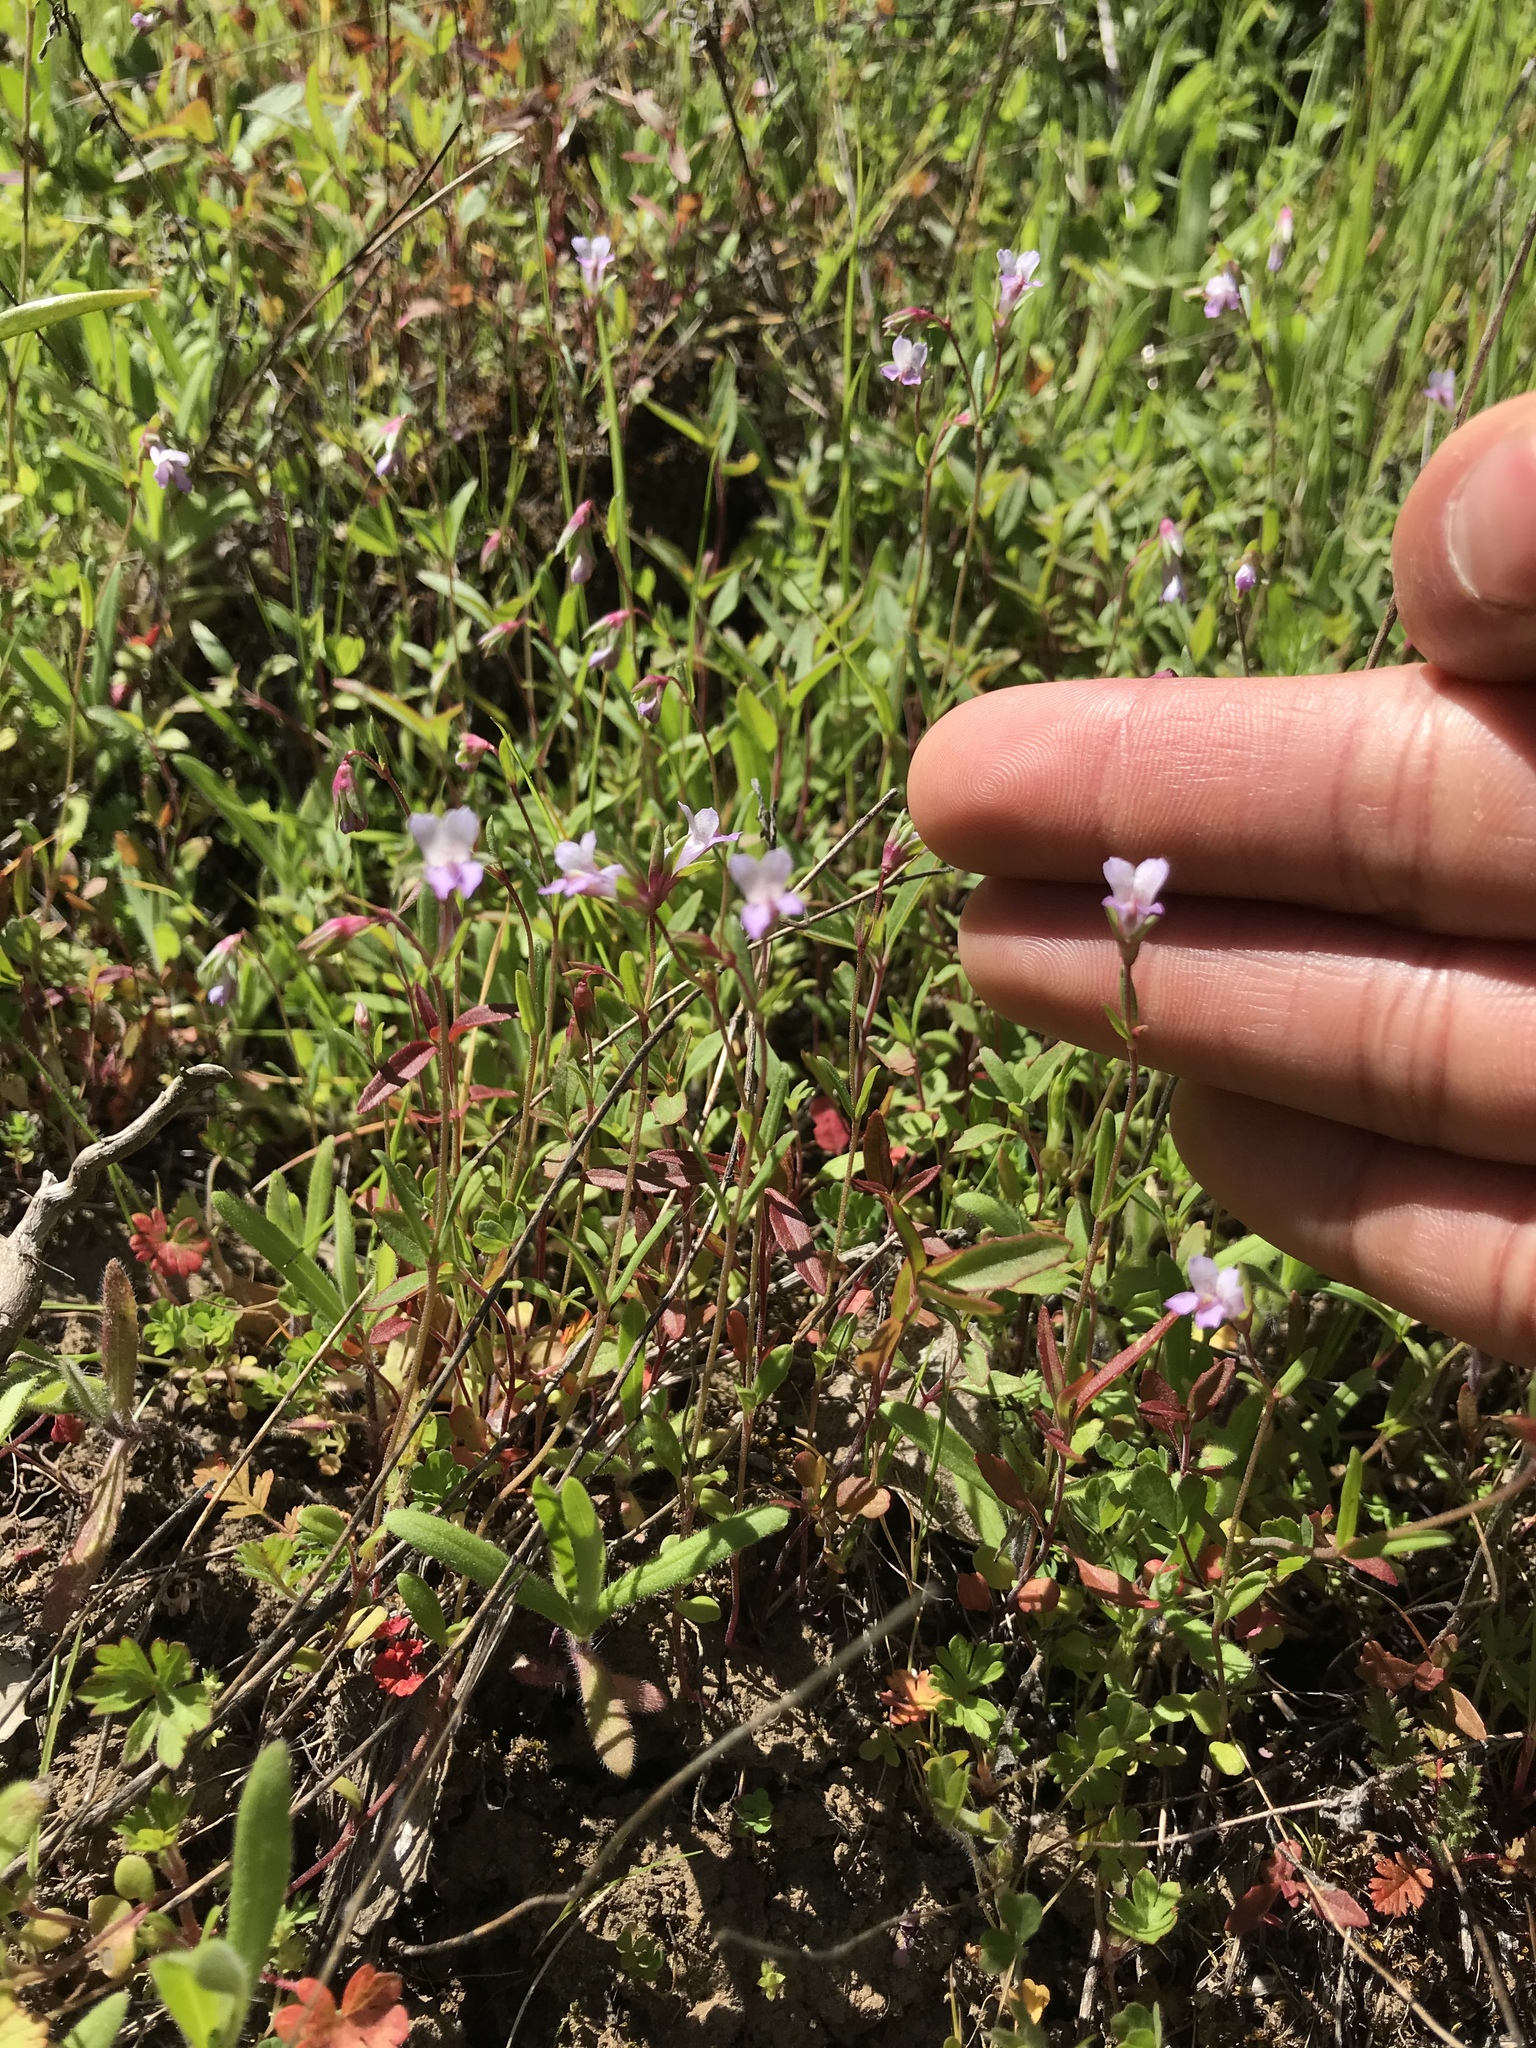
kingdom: Plantae
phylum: Tracheophyta
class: Magnoliopsida
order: Lamiales
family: Plantaginaceae
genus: Collinsia
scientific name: Collinsia sparsiflora
